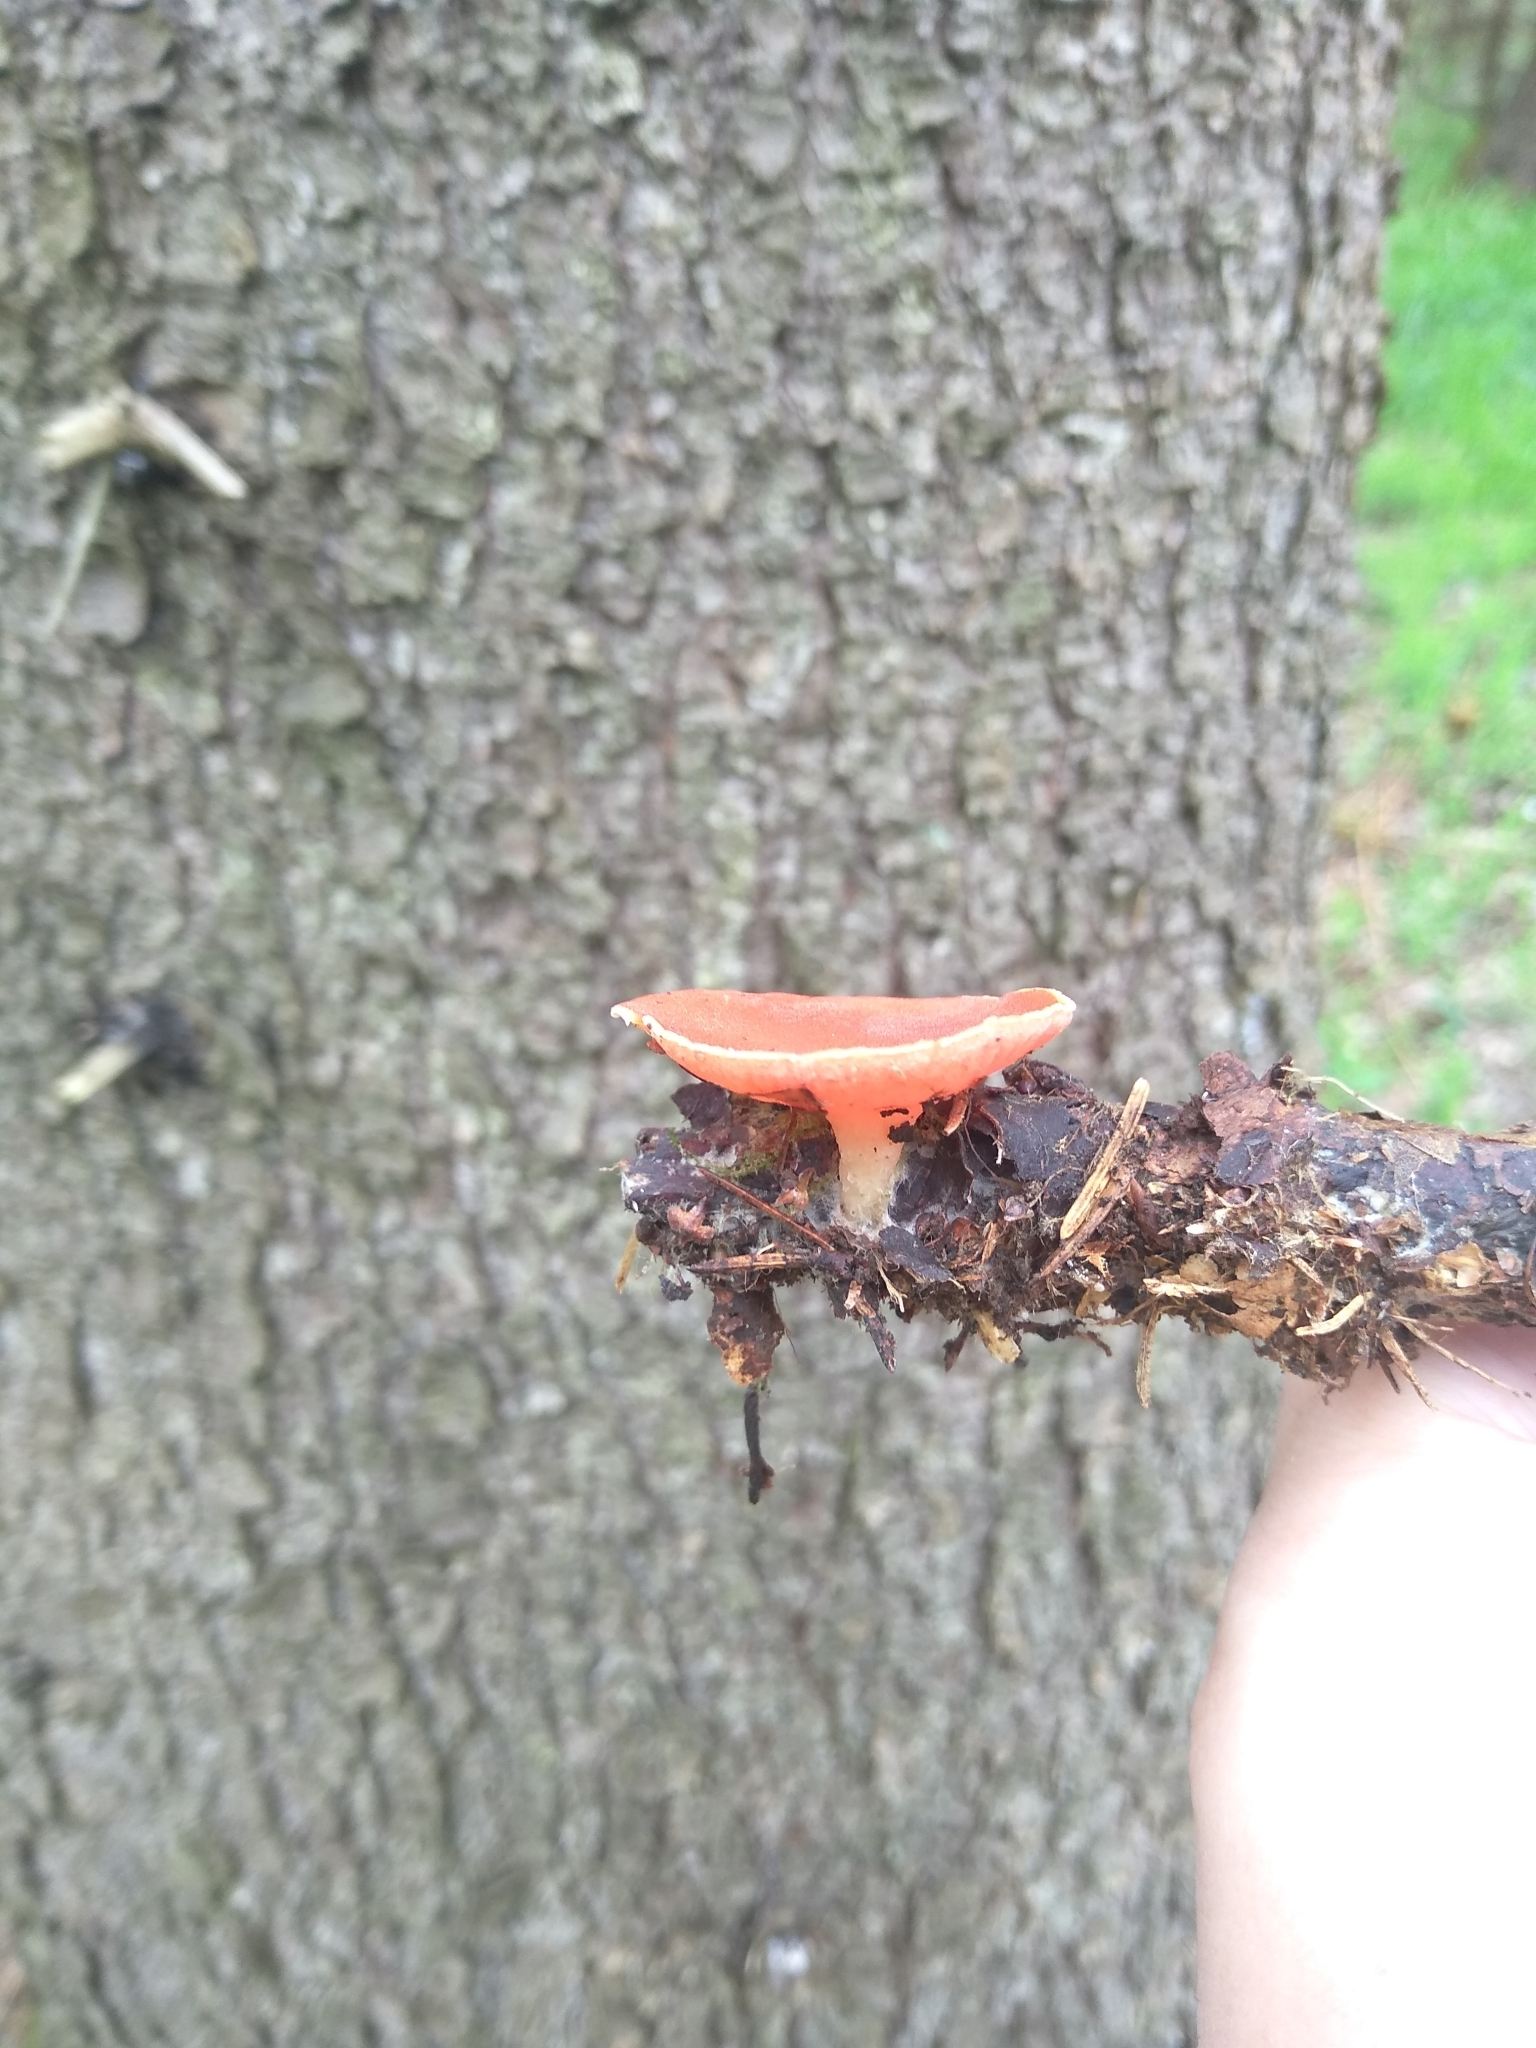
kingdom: Fungi
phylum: Ascomycota
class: Pezizomycetes
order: Pezizales
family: Sarcoscyphaceae
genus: Sarcoscypha
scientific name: Sarcoscypha austriaca
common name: Scarlet elfcup
